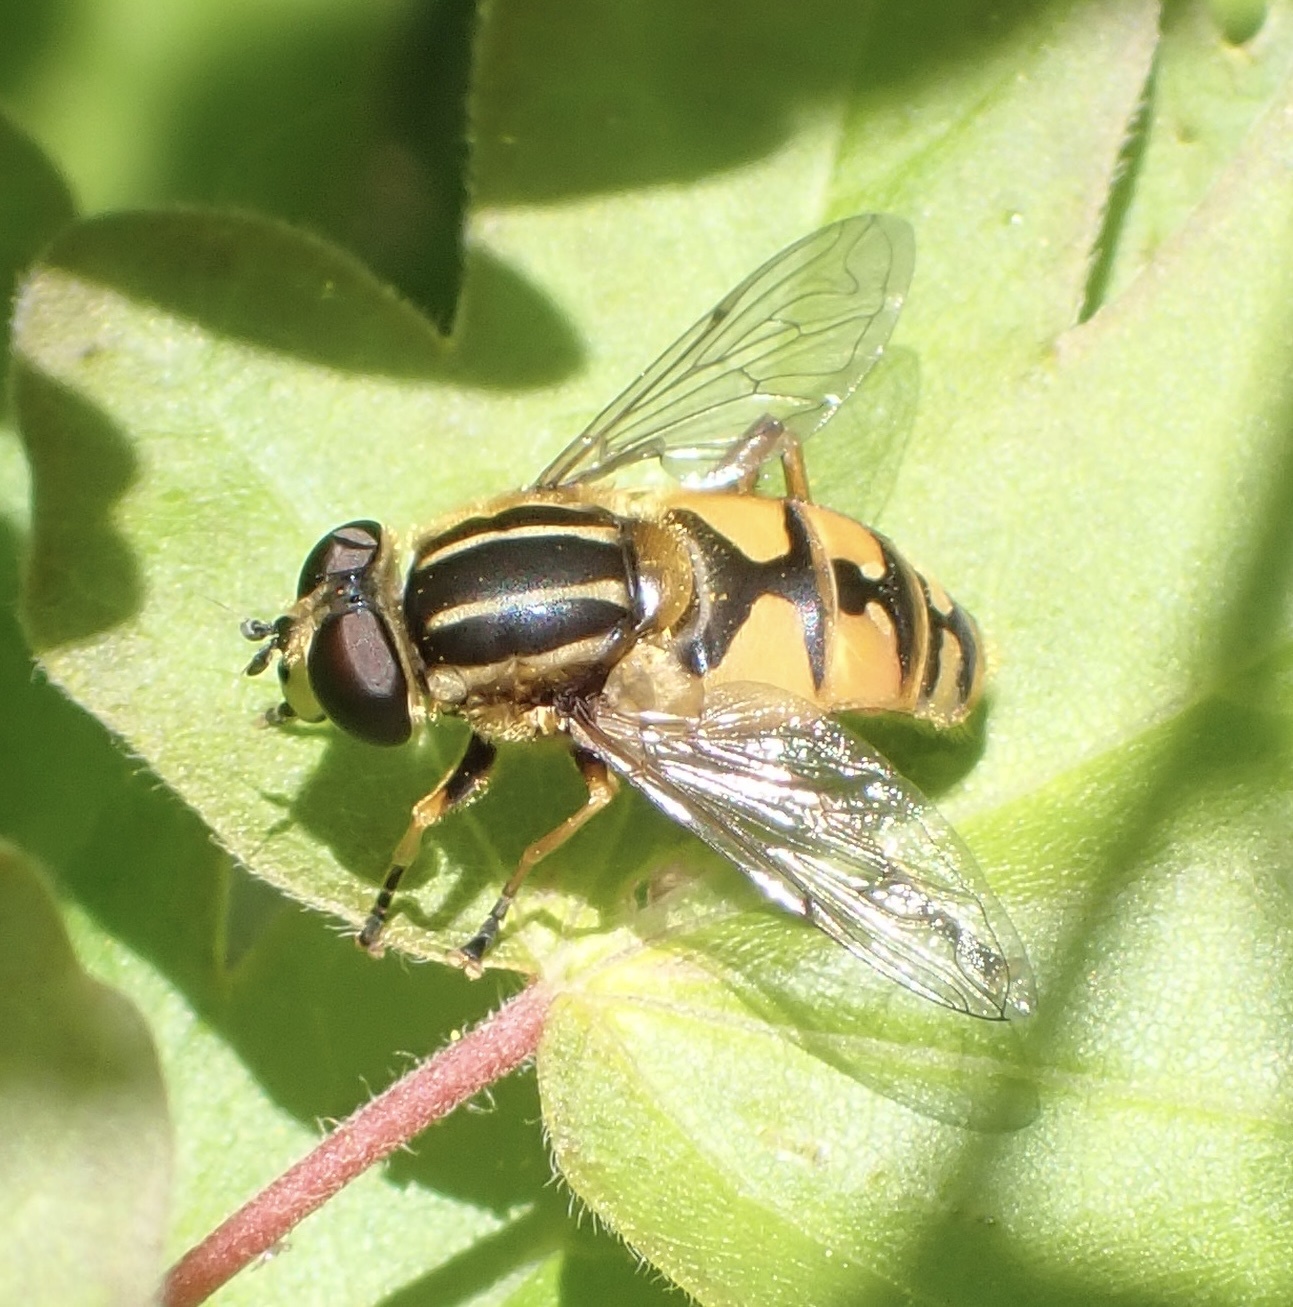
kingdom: Animalia
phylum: Arthropoda
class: Insecta
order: Diptera
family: Syrphidae
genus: Helophilus
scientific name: Helophilus pendulus
